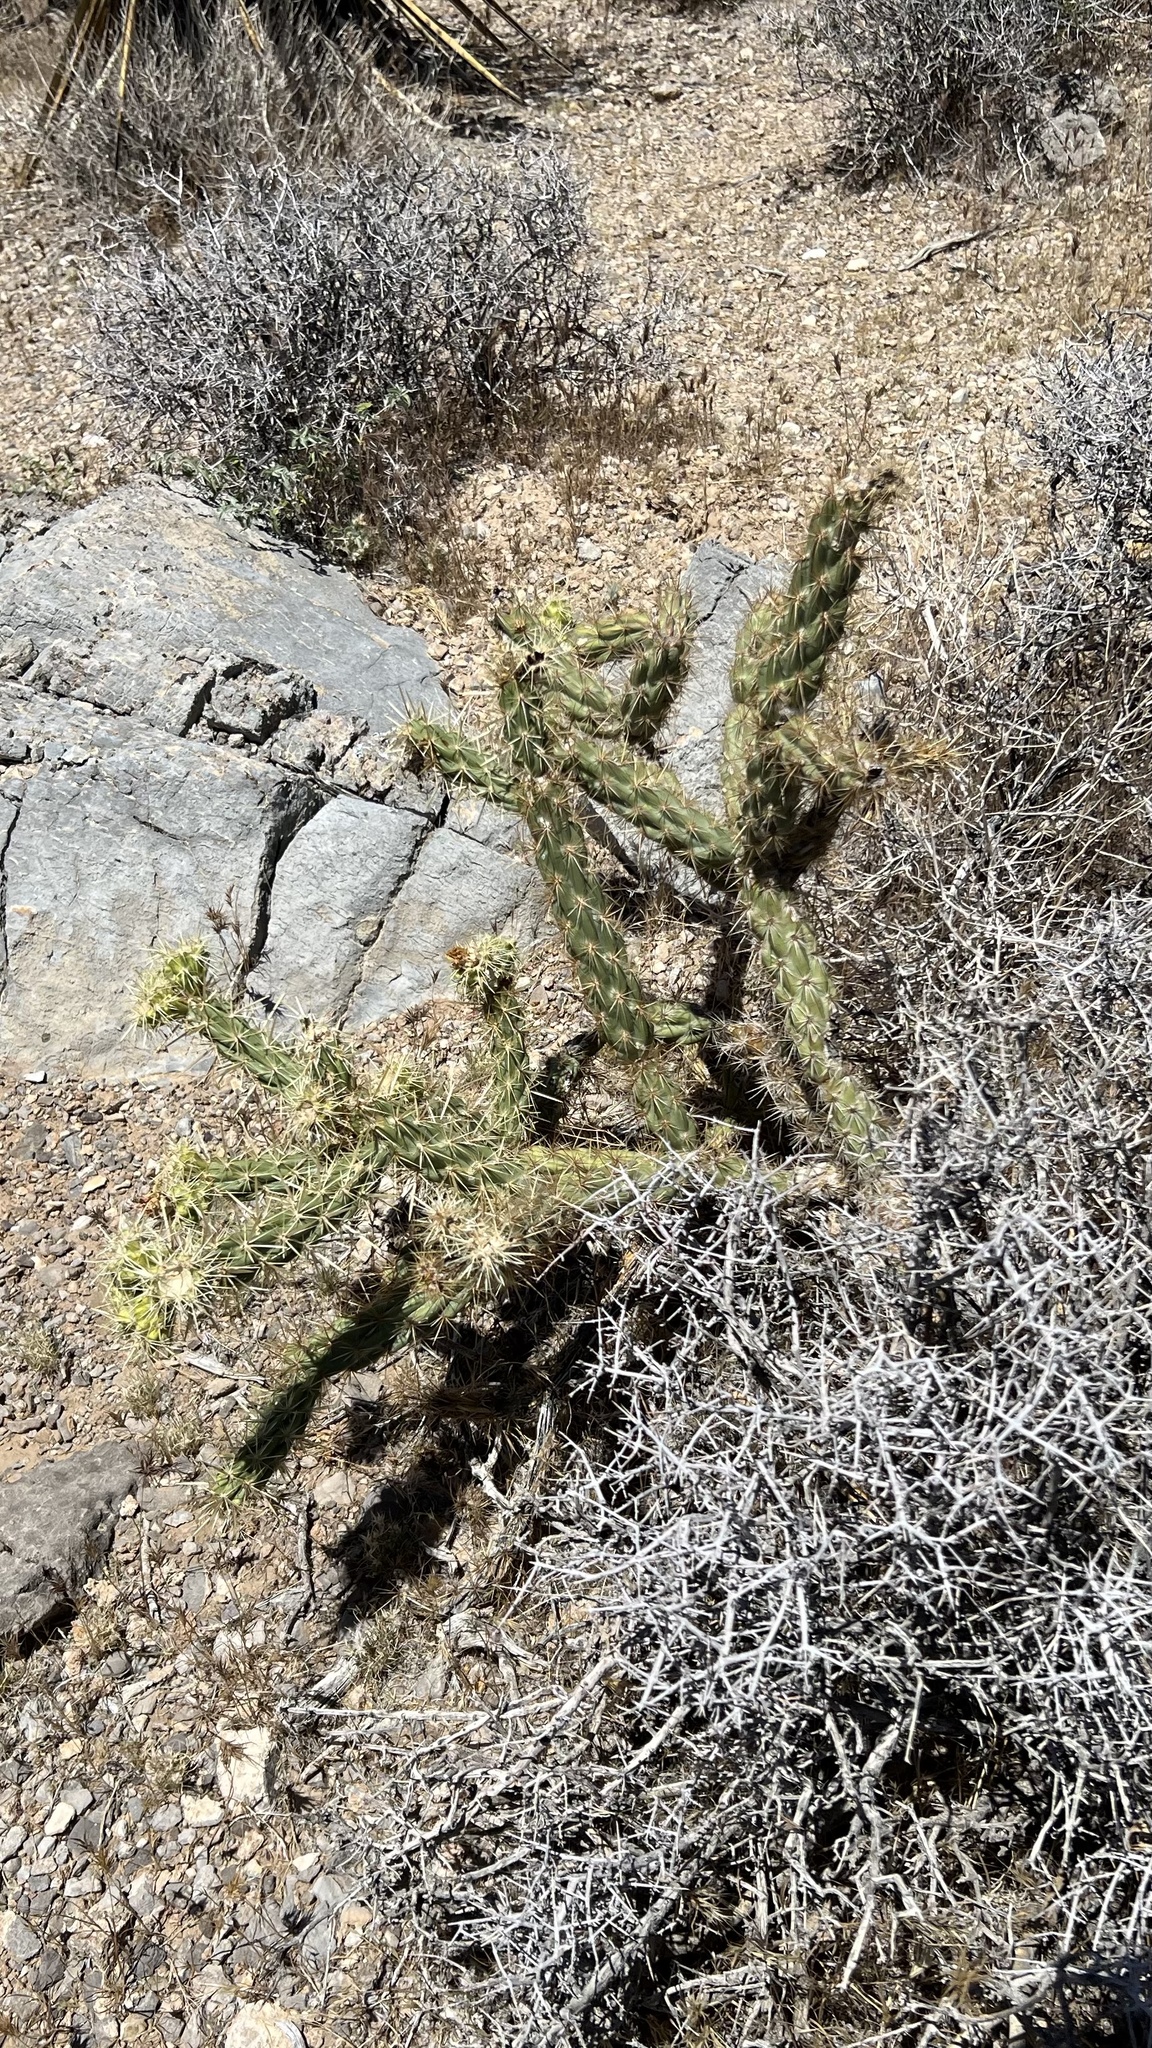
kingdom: Plantae
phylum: Tracheophyta
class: Magnoliopsida
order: Caryophyllales
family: Cactaceae
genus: Cylindropuntia
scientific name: Cylindropuntia acanthocarpa
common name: Buckhorn cholla
